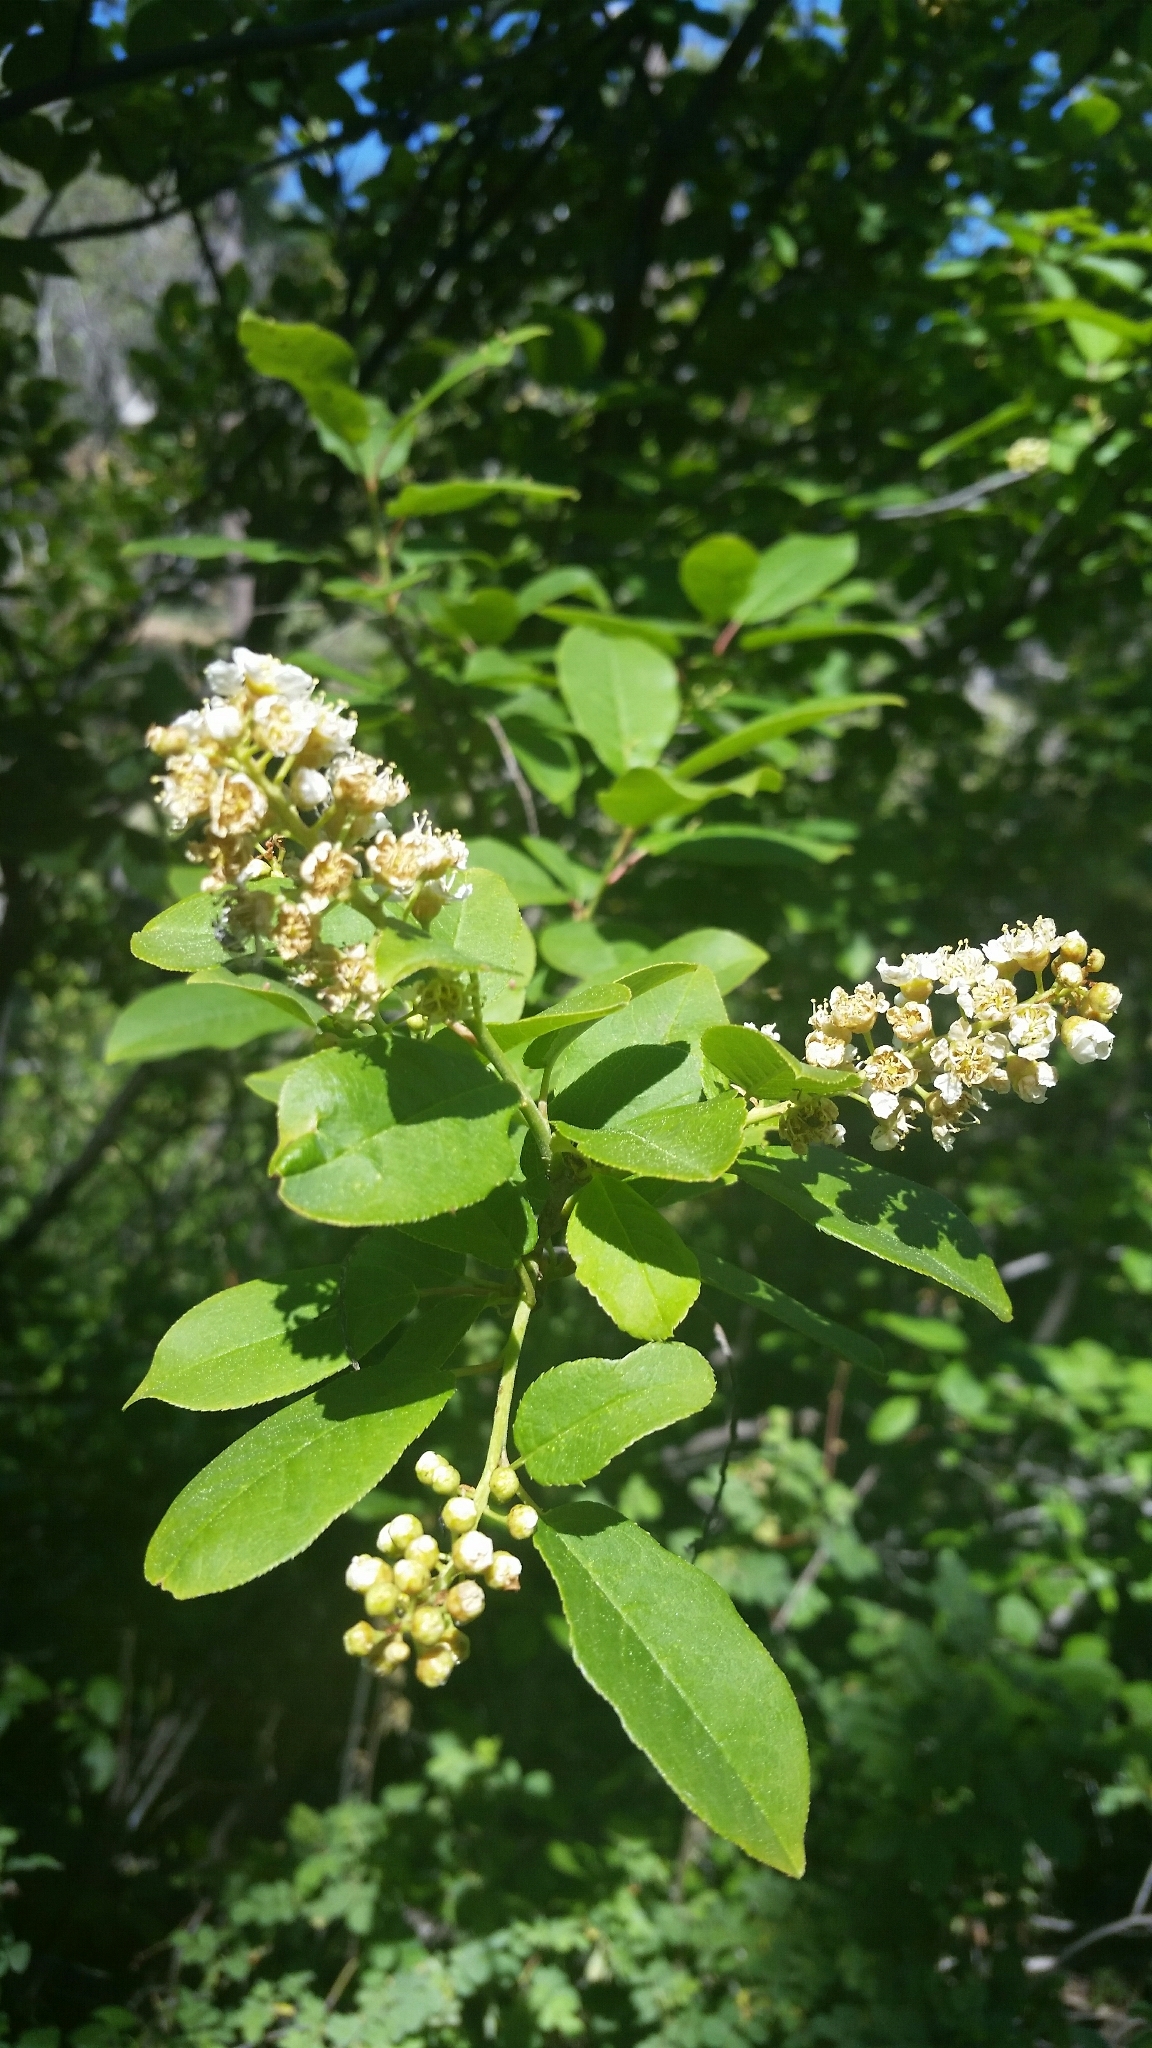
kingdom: Plantae
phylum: Tracheophyta
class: Magnoliopsida
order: Rosales
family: Rosaceae
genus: Prunus
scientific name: Prunus virginiana
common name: Chokecherry
